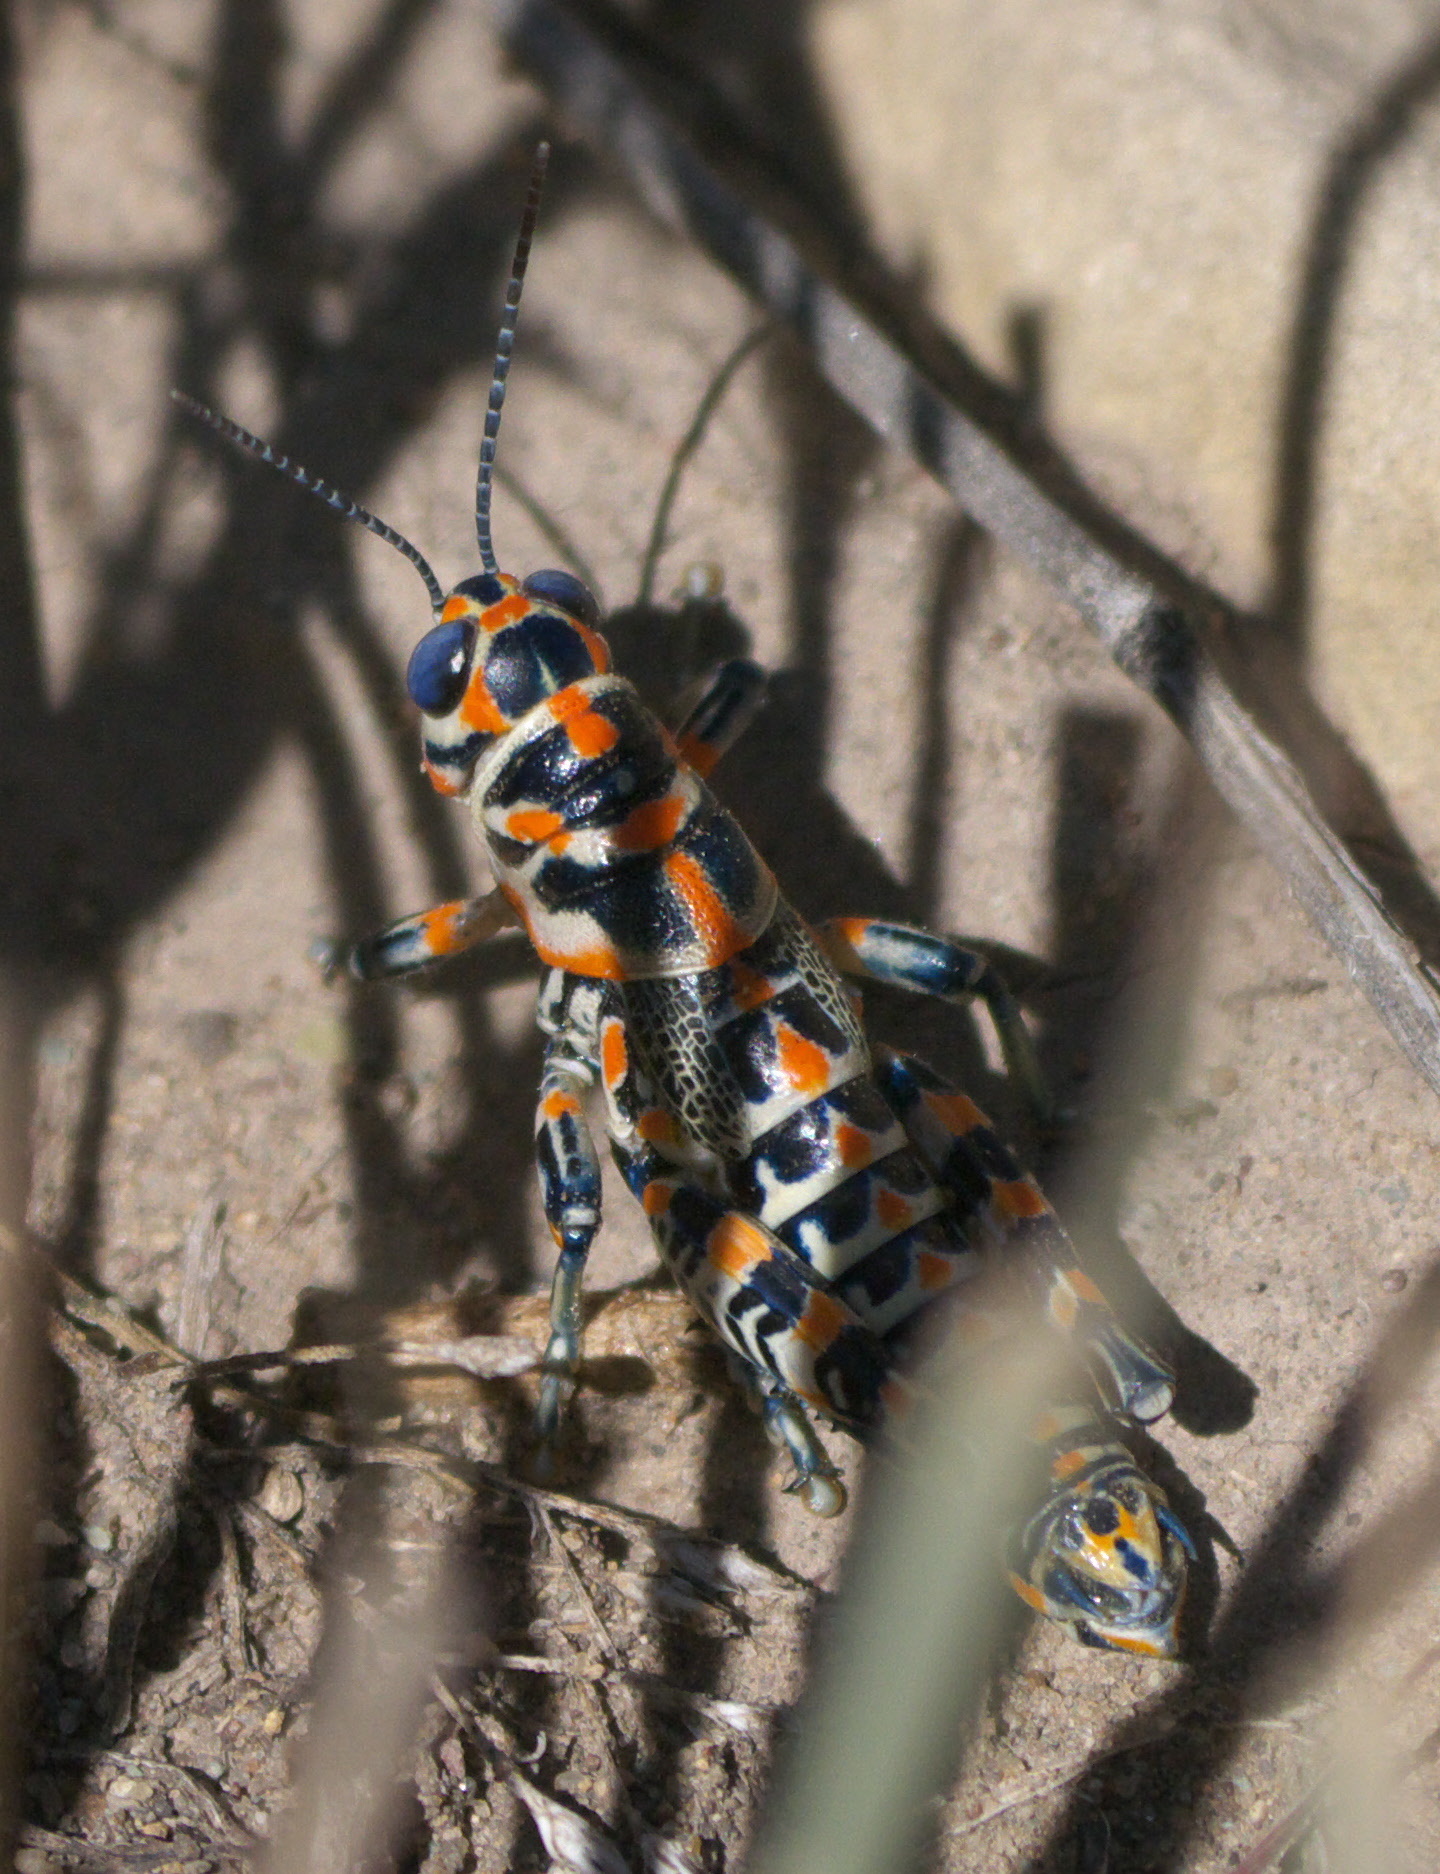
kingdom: Animalia
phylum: Arthropoda
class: Insecta
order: Orthoptera
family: Acrididae
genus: Dactylotum
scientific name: Dactylotum bicolor
